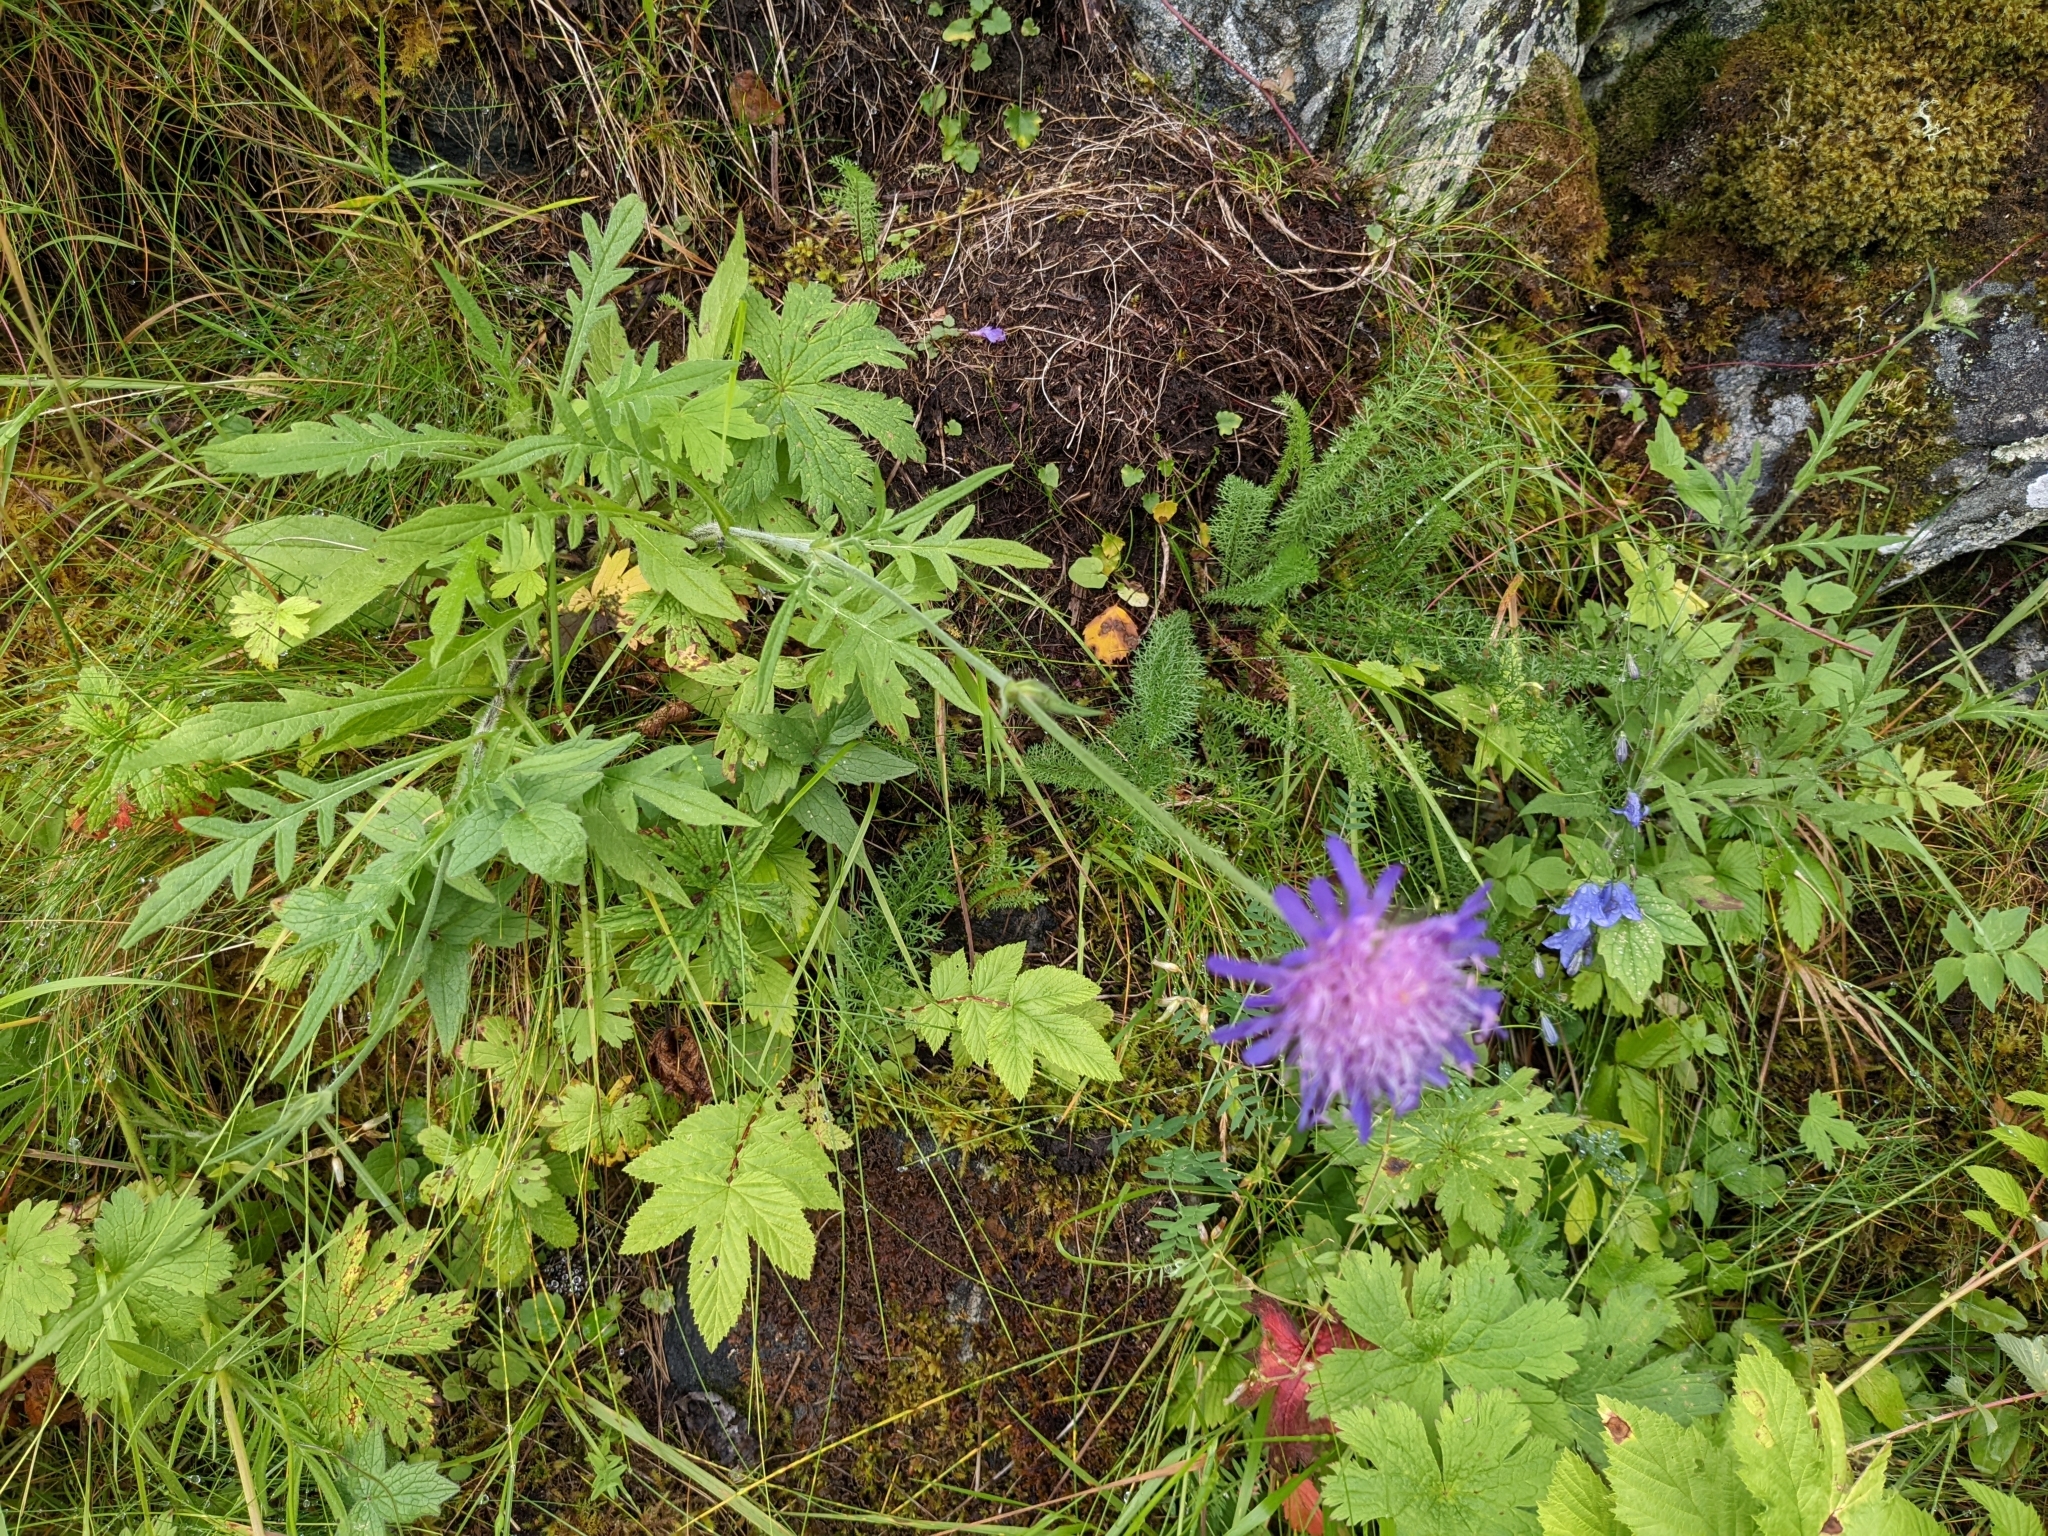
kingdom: Plantae
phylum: Tracheophyta
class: Magnoliopsida
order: Dipsacales
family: Caprifoliaceae
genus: Knautia
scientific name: Knautia arvensis
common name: Field scabiosa
